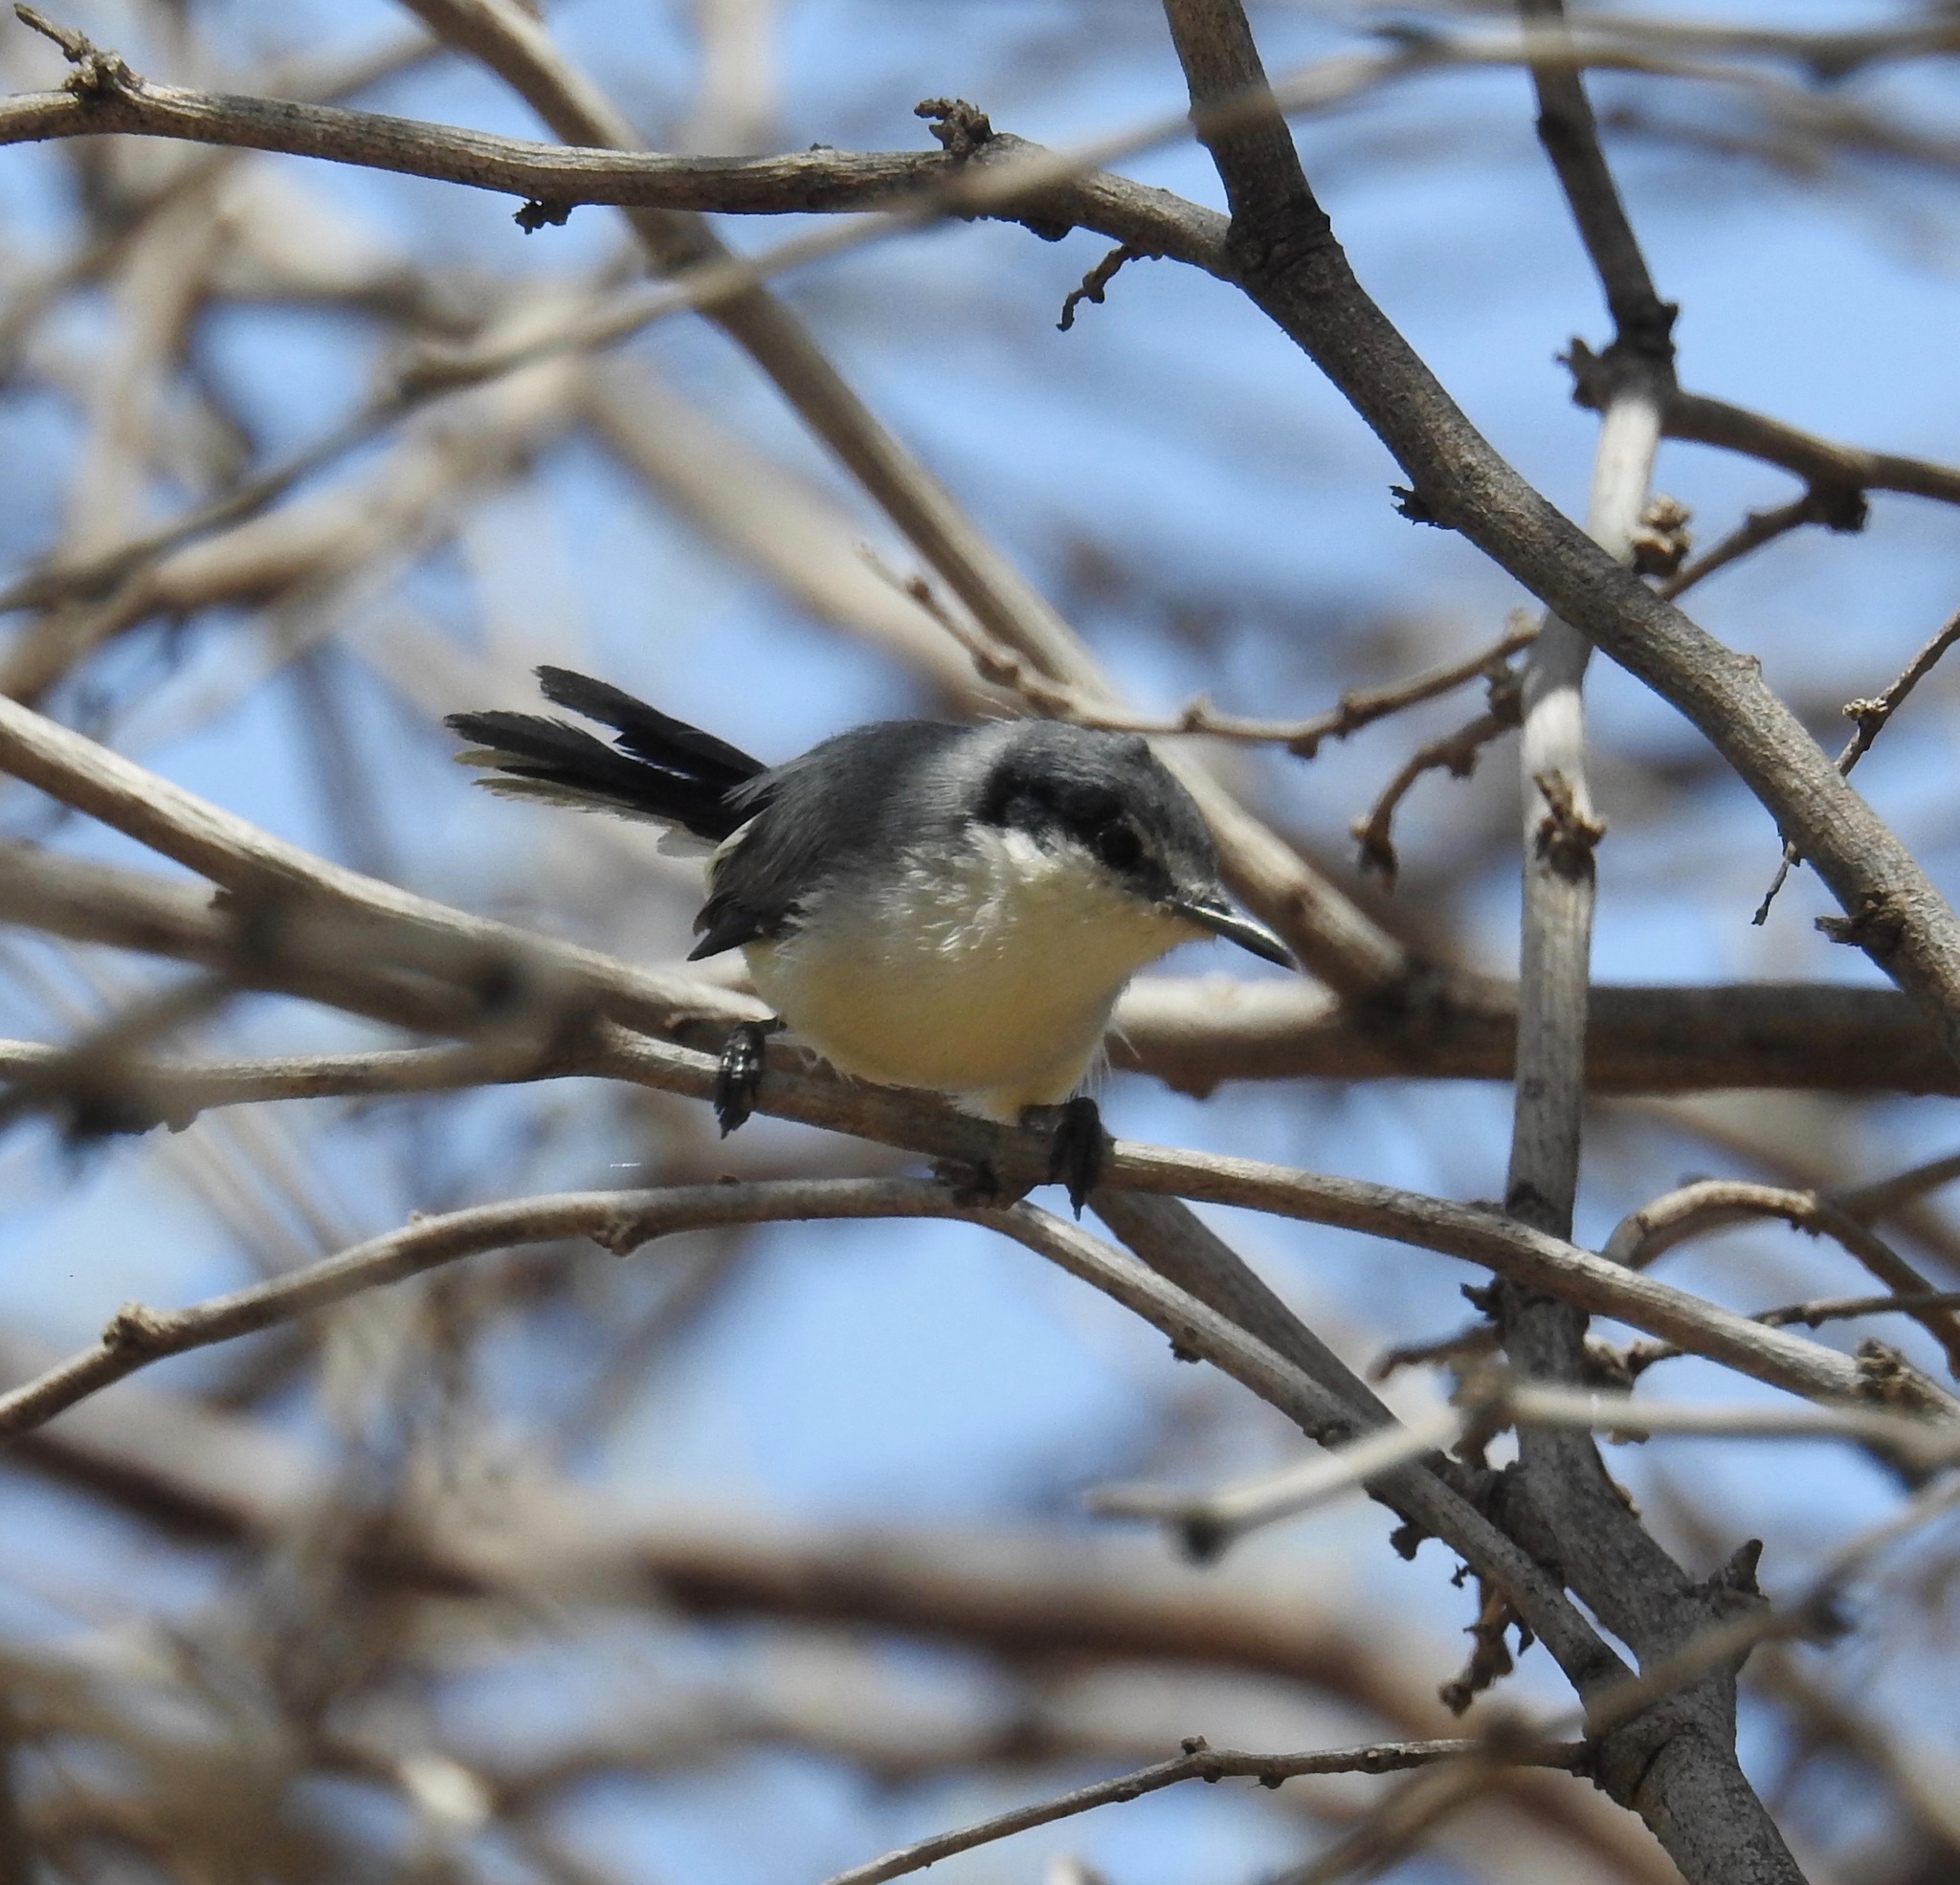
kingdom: Animalia
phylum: Chordata
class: Aves
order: Passeriformes
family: Polioptilidae
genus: Polioptila
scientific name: Polioptila plumbea
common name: Tropical gnatcatcher
